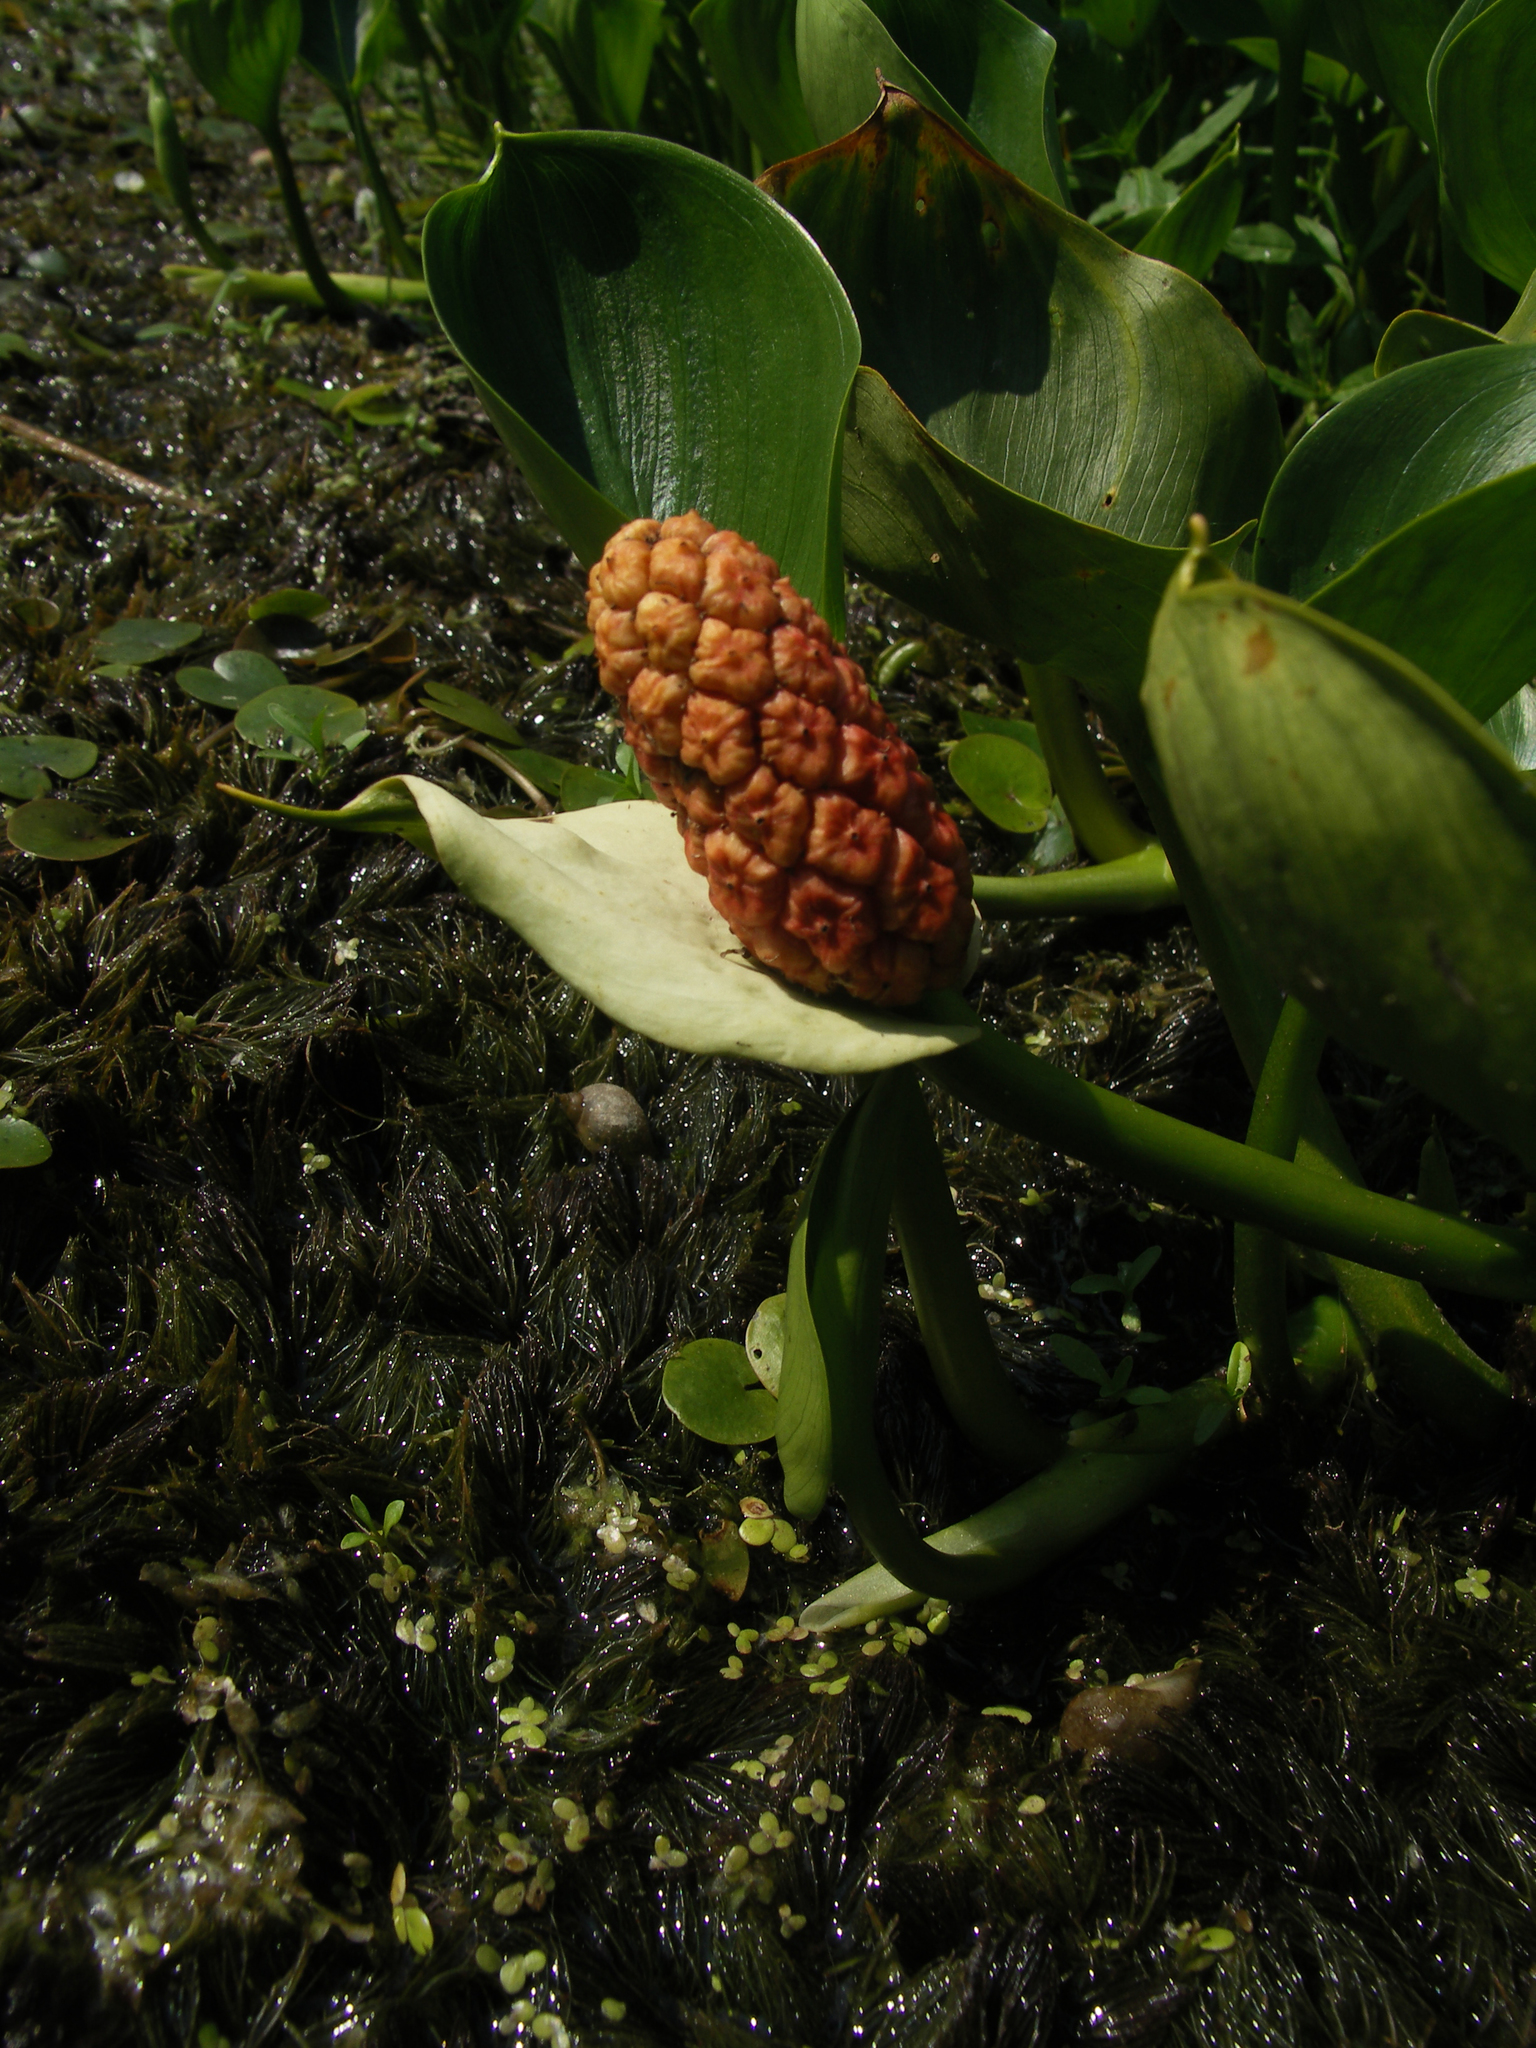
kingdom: Plantae
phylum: Tracheophyta
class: Liliopsida
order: Alismatales
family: Araceae
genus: Calla
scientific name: Calla palustris
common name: Bog arum
